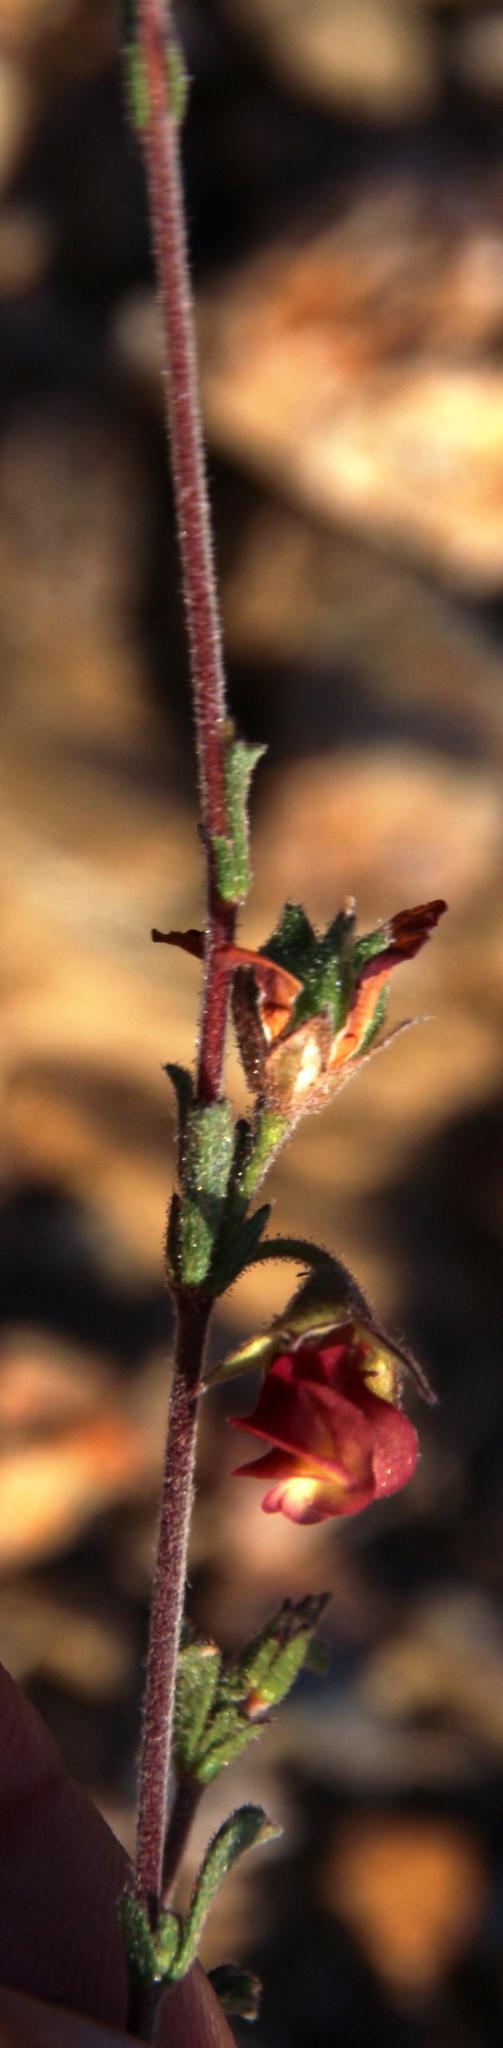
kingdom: Plantae
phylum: Tracheophyta
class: Magnoliopsida
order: Malvales
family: Malvaceae
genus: Hermannia
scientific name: Hermannia flammula
